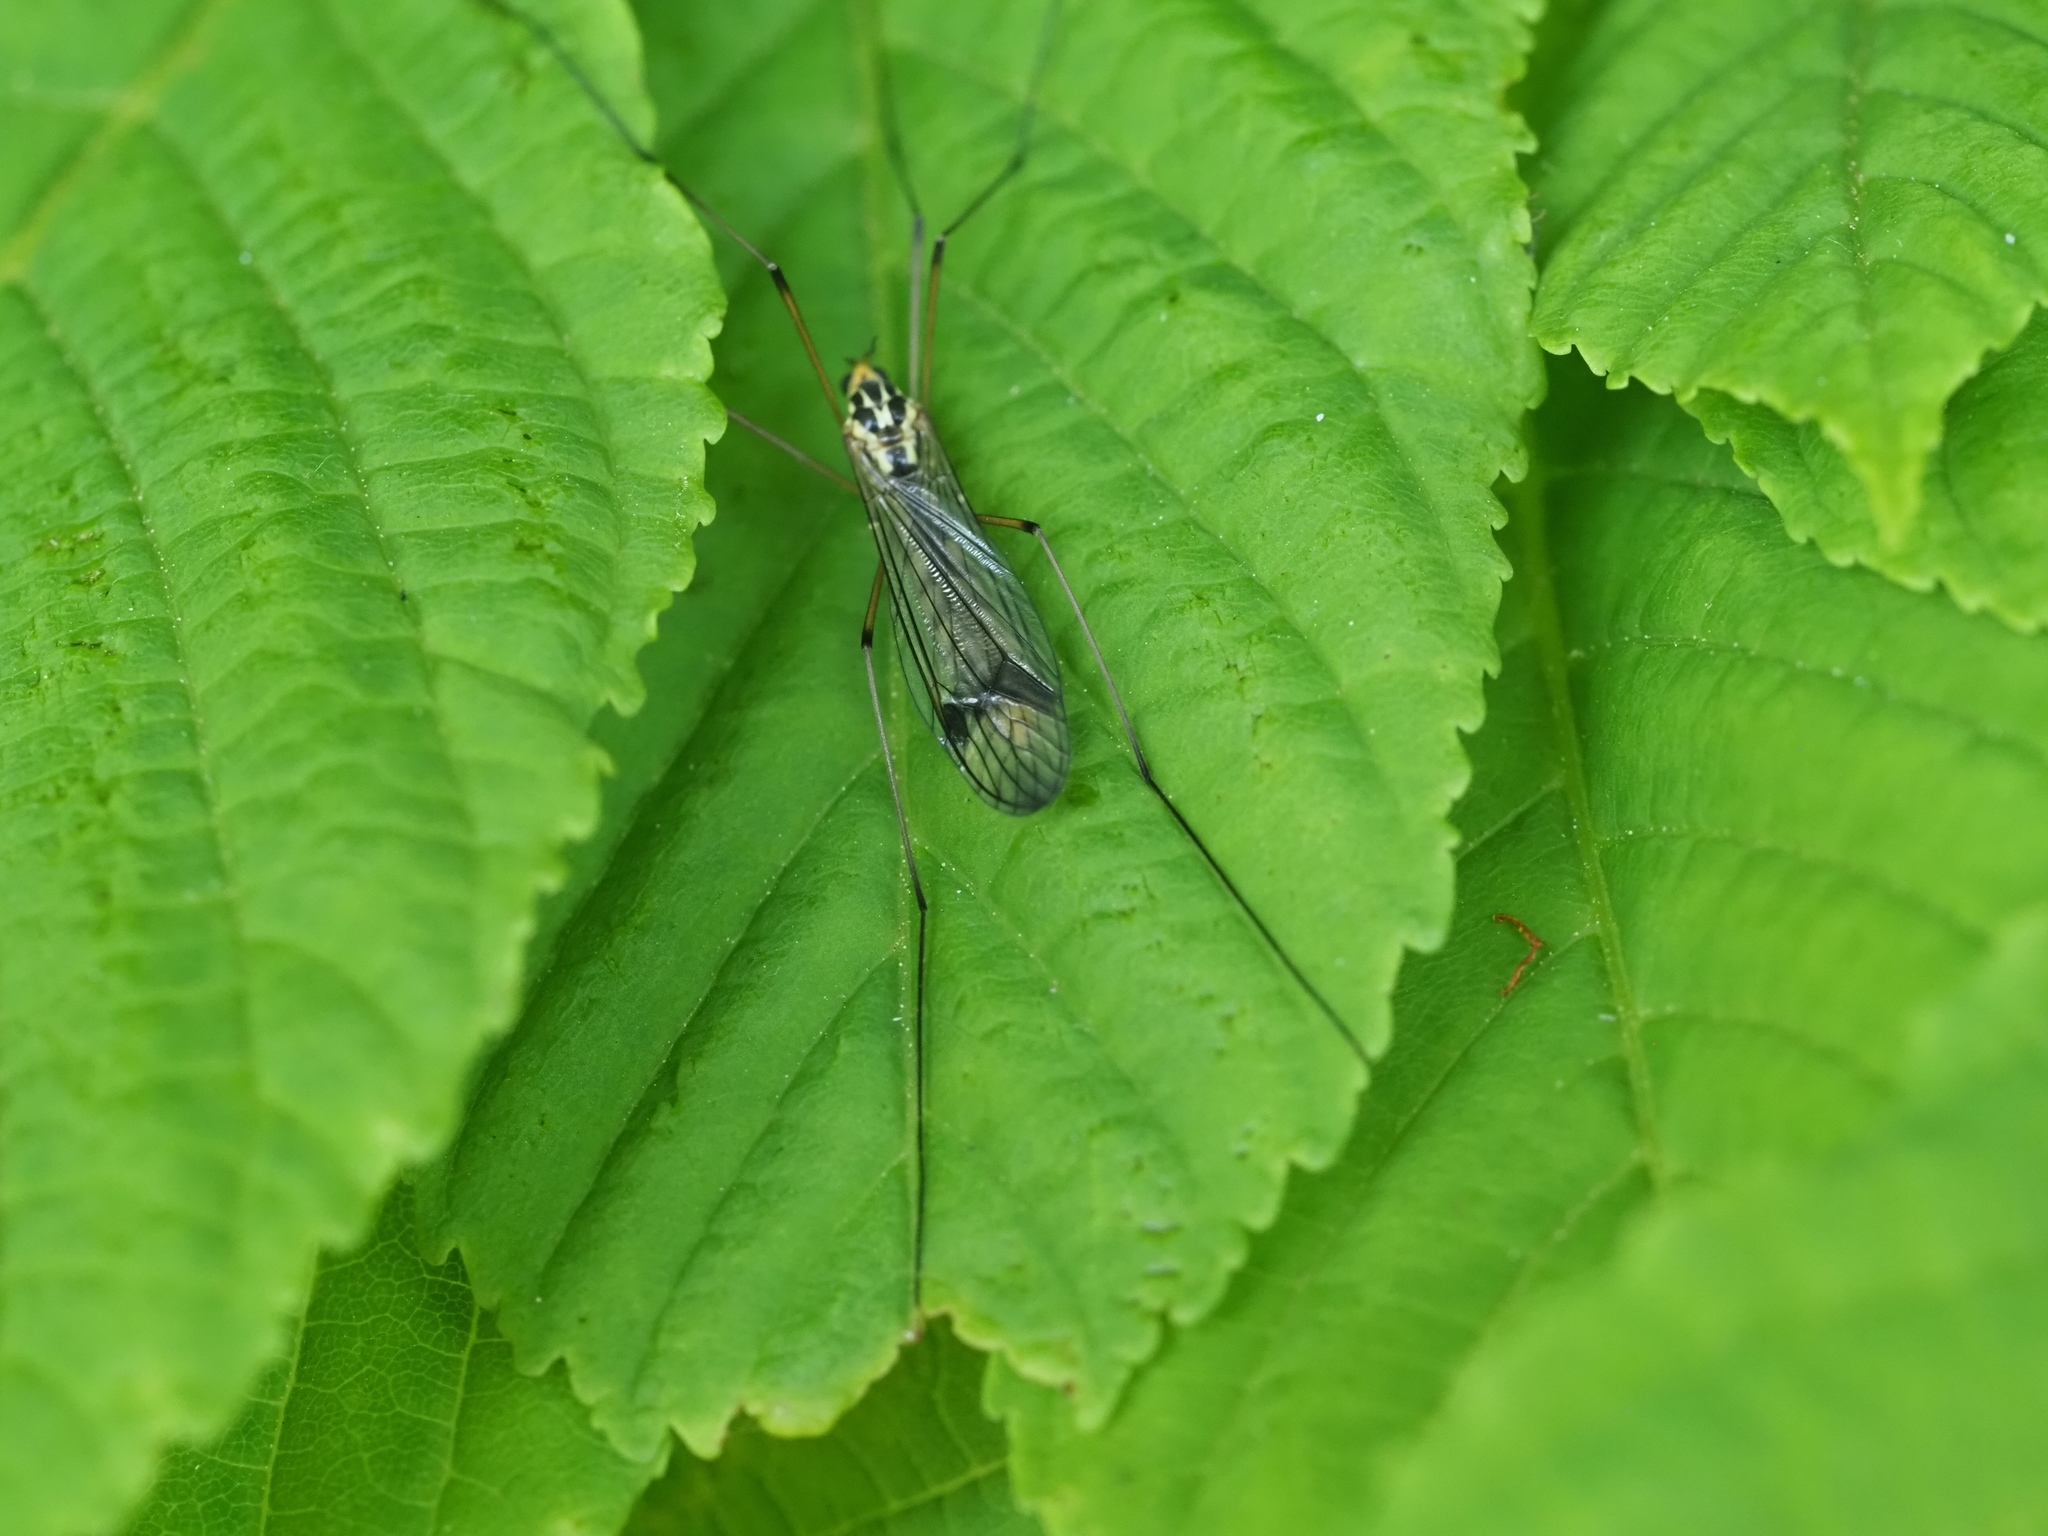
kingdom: Animalia
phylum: Arthropoda
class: Insecta
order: Diptera
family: Tipulidae
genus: Nephrotoma
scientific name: Nephrotoma quadrifaria
